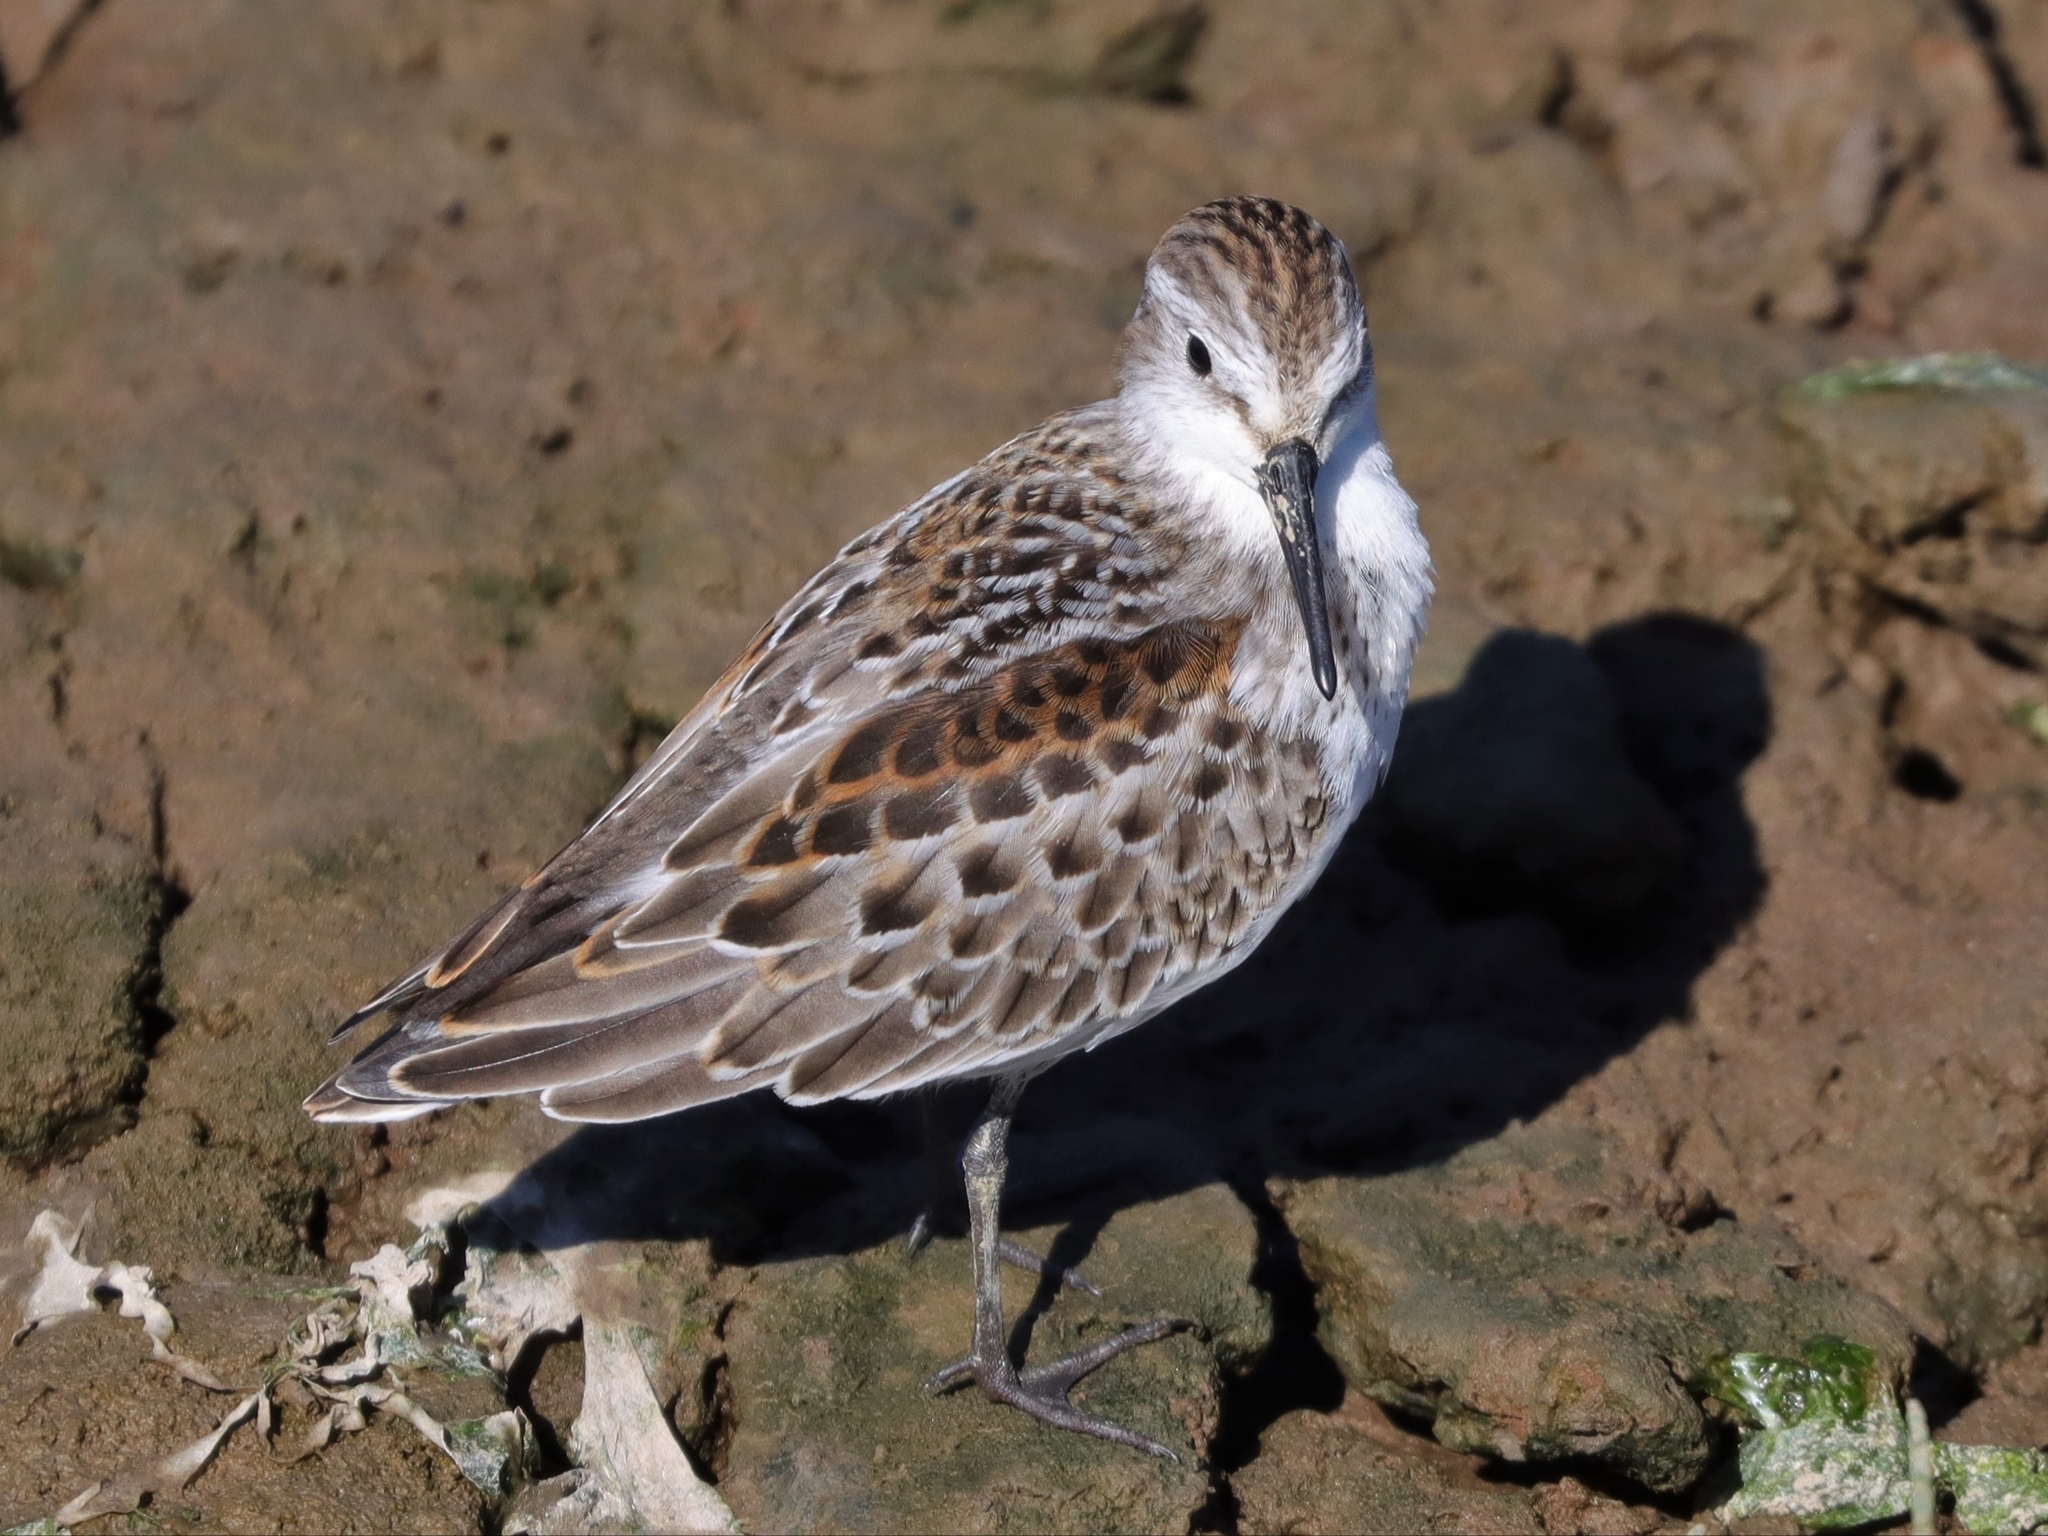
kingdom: Animalia
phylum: Chordata
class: Aves
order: Charadriiformes
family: Scolopacidae
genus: Calidris
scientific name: Calidris mauri
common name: Western sandpiper
